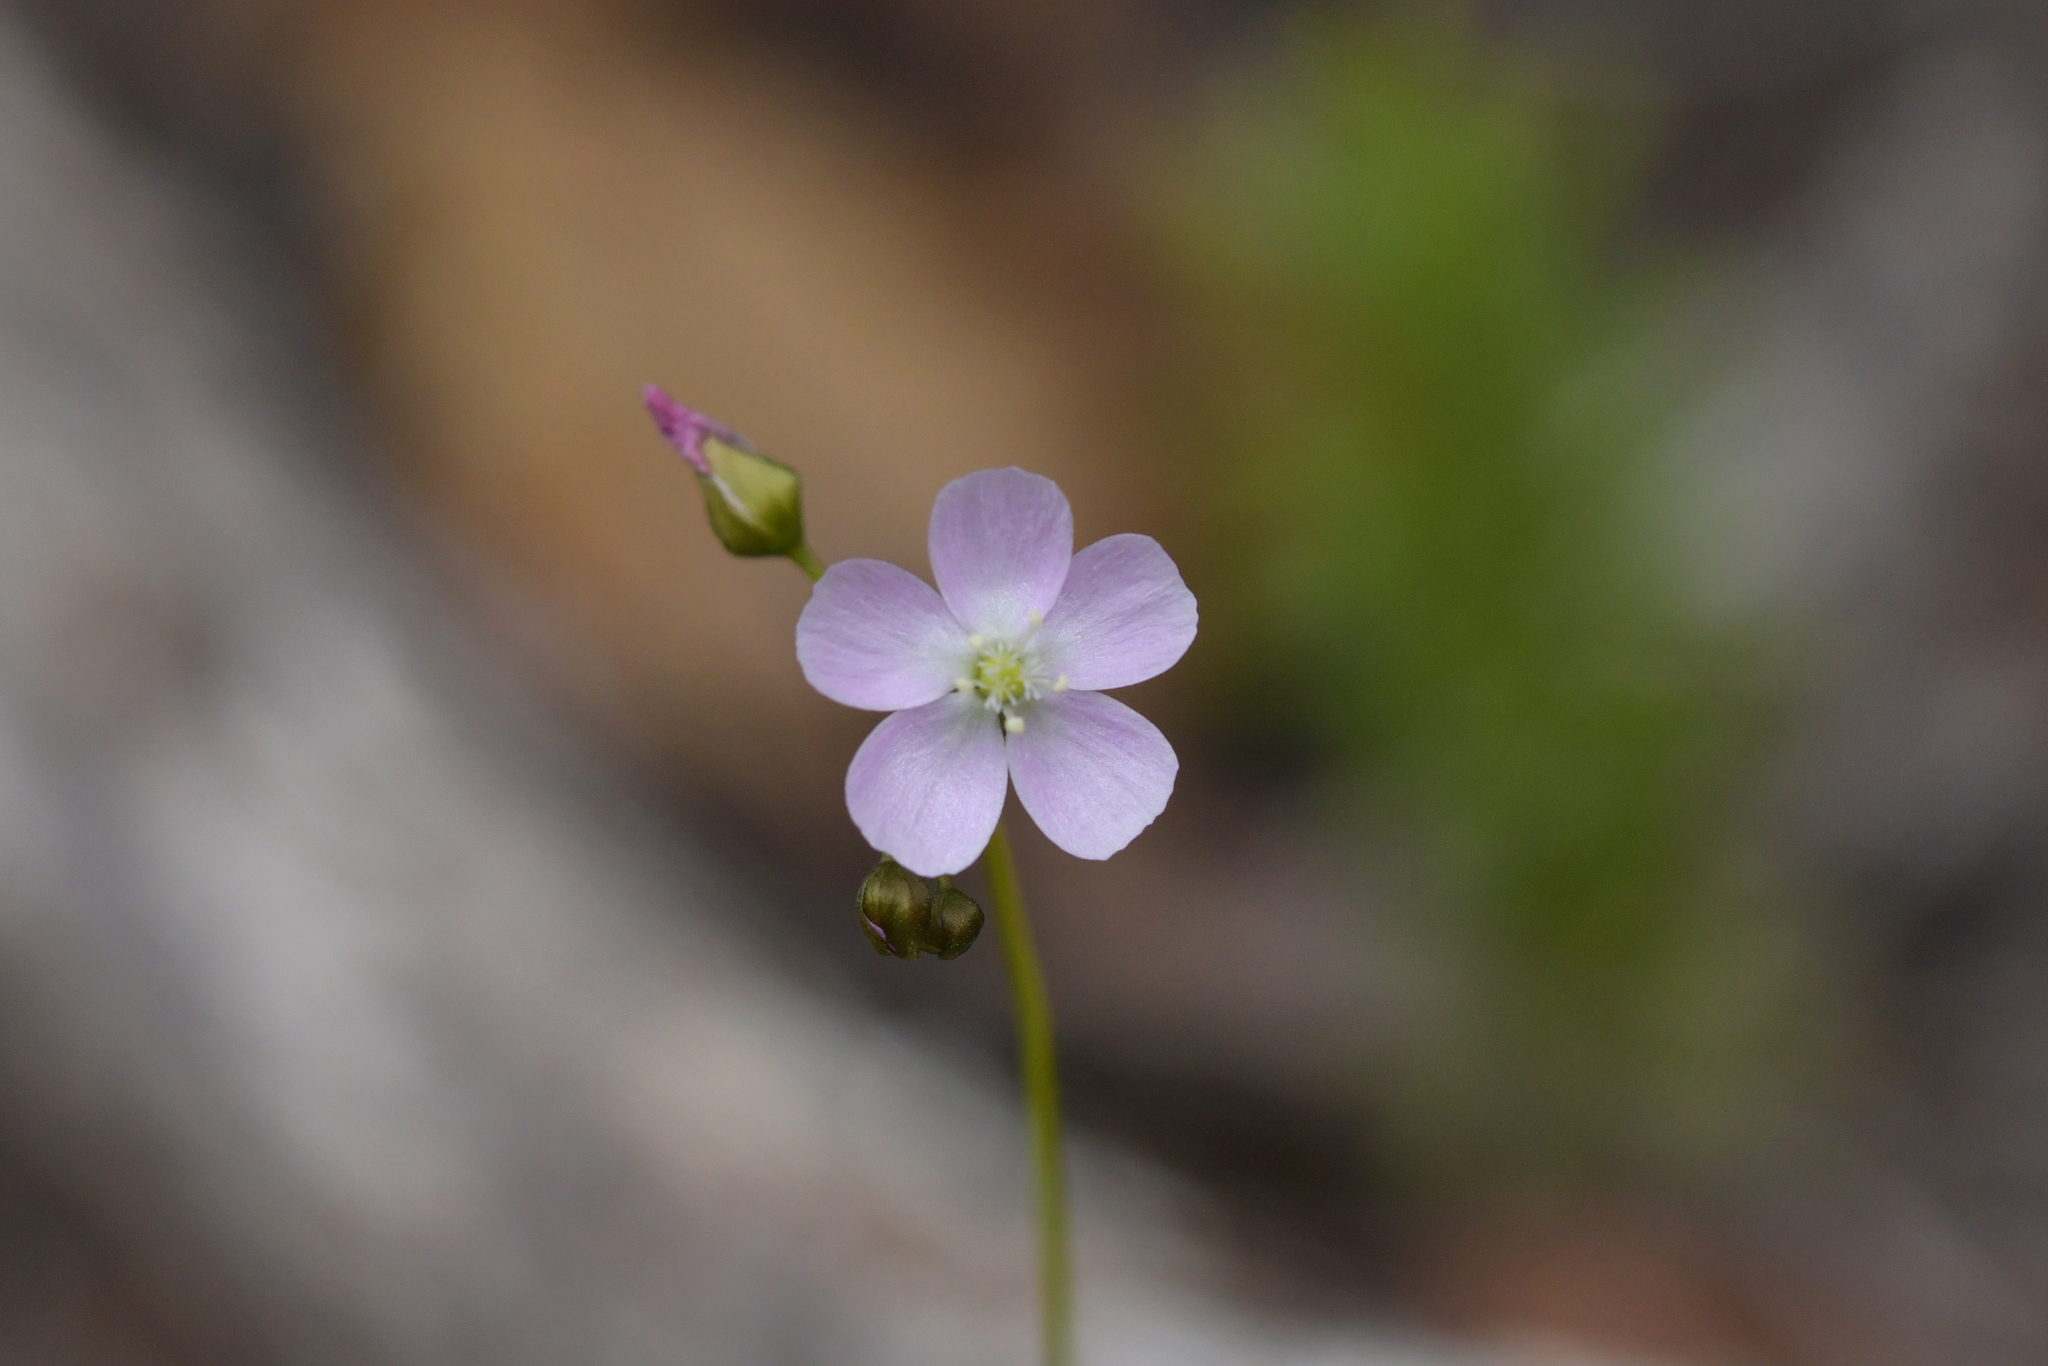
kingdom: Plantae
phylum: Tracheophyta
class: Magnoliopsida
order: Caryophyllales
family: Droseraceae
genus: Drosera
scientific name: Drosera peltata
